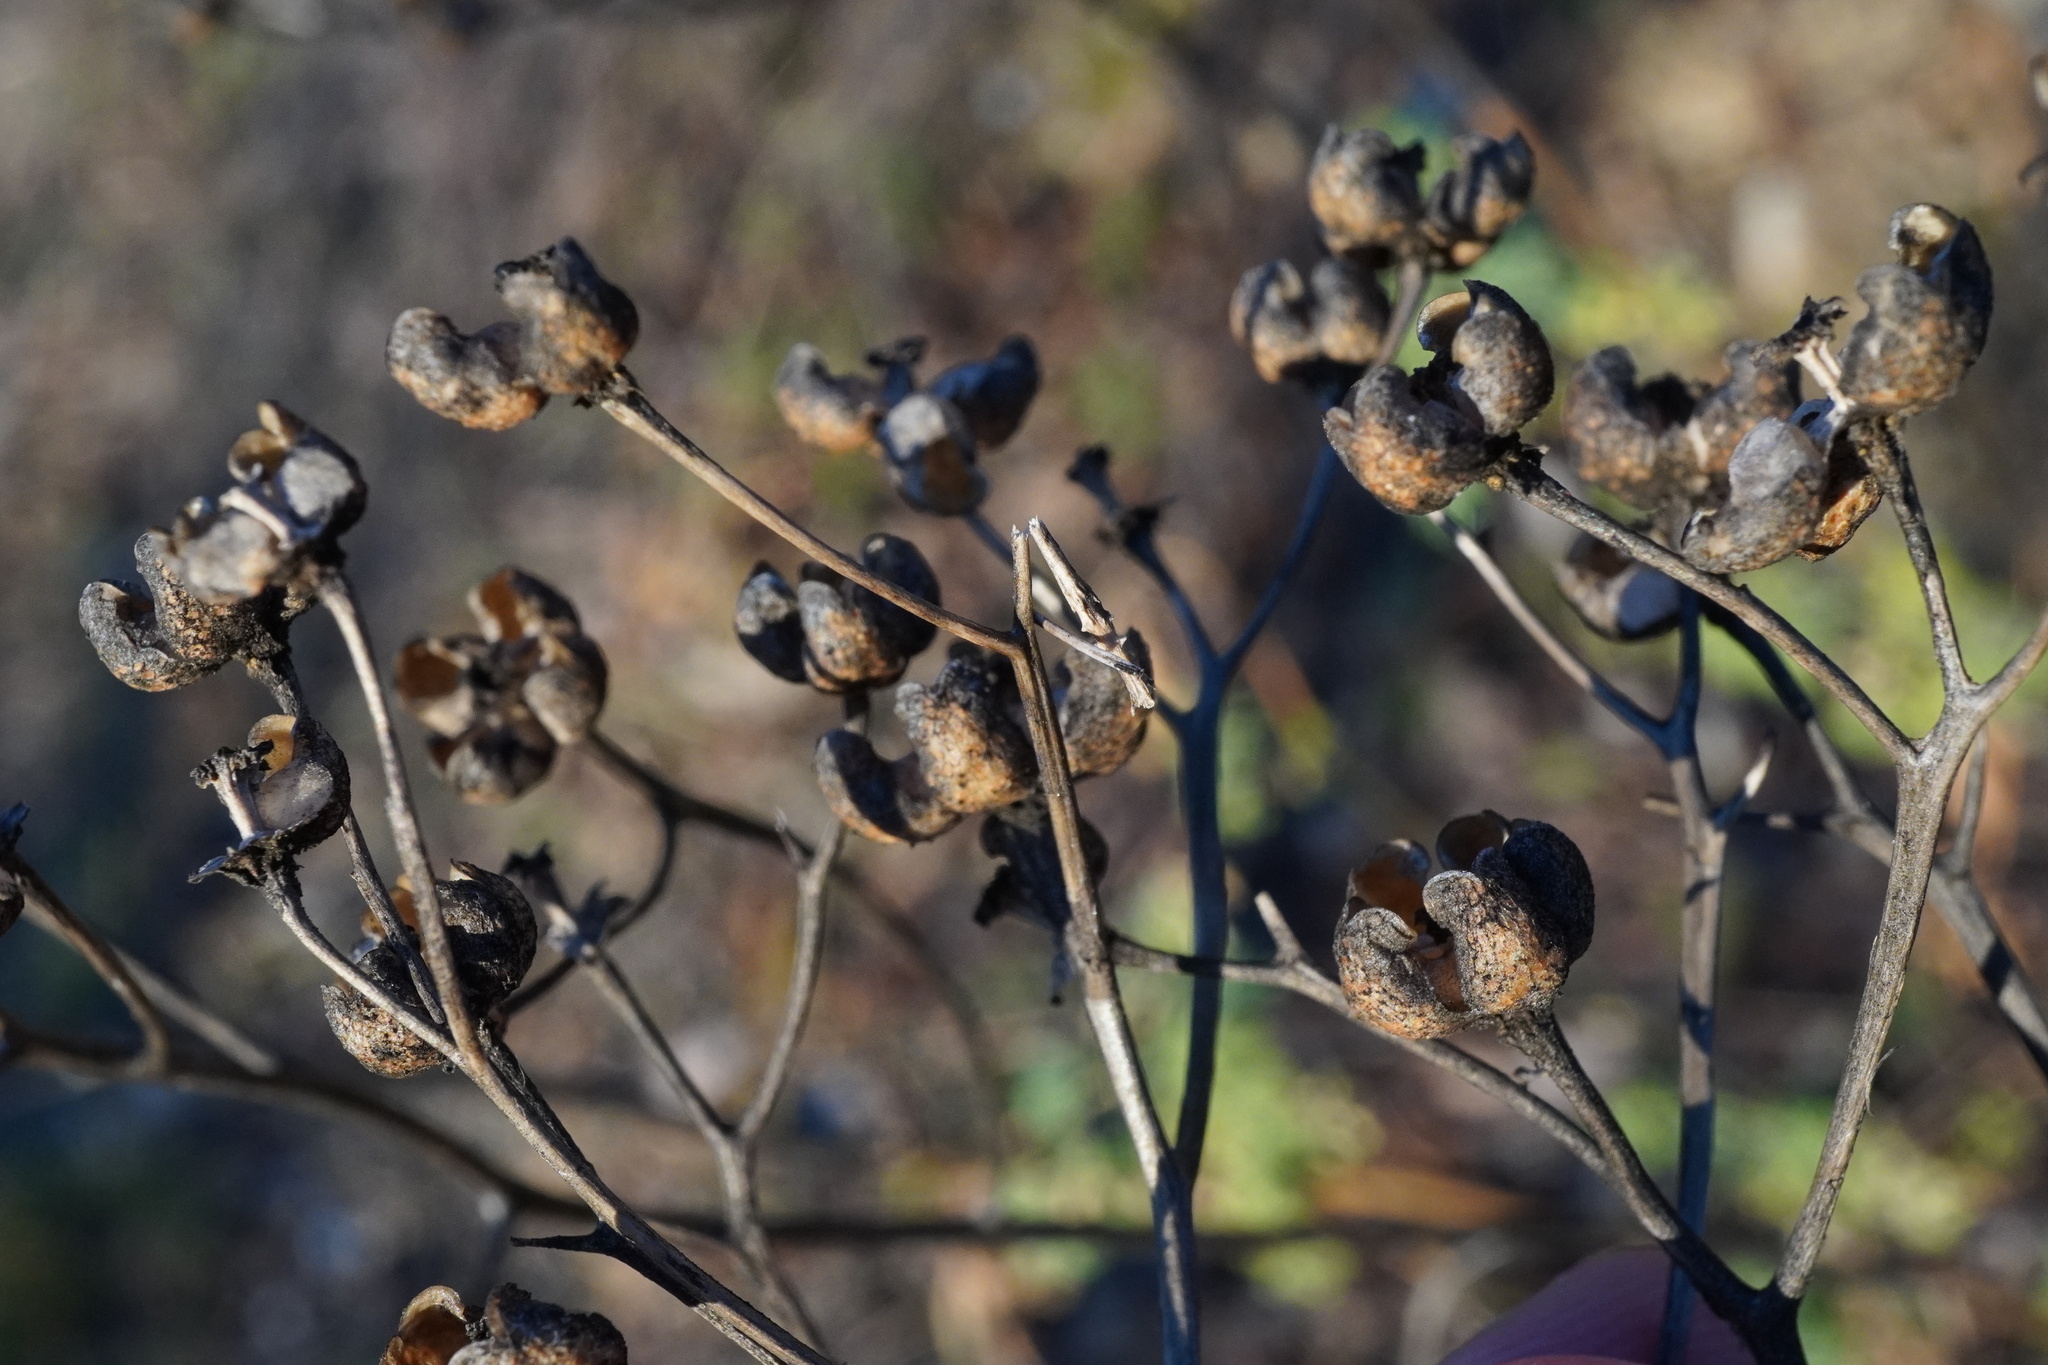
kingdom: Plantae
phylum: Tracheophyta
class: Magnoliopsida
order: Sapindales
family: Rutaceae
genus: Ruta
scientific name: Ruta graveolens
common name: Common rue
